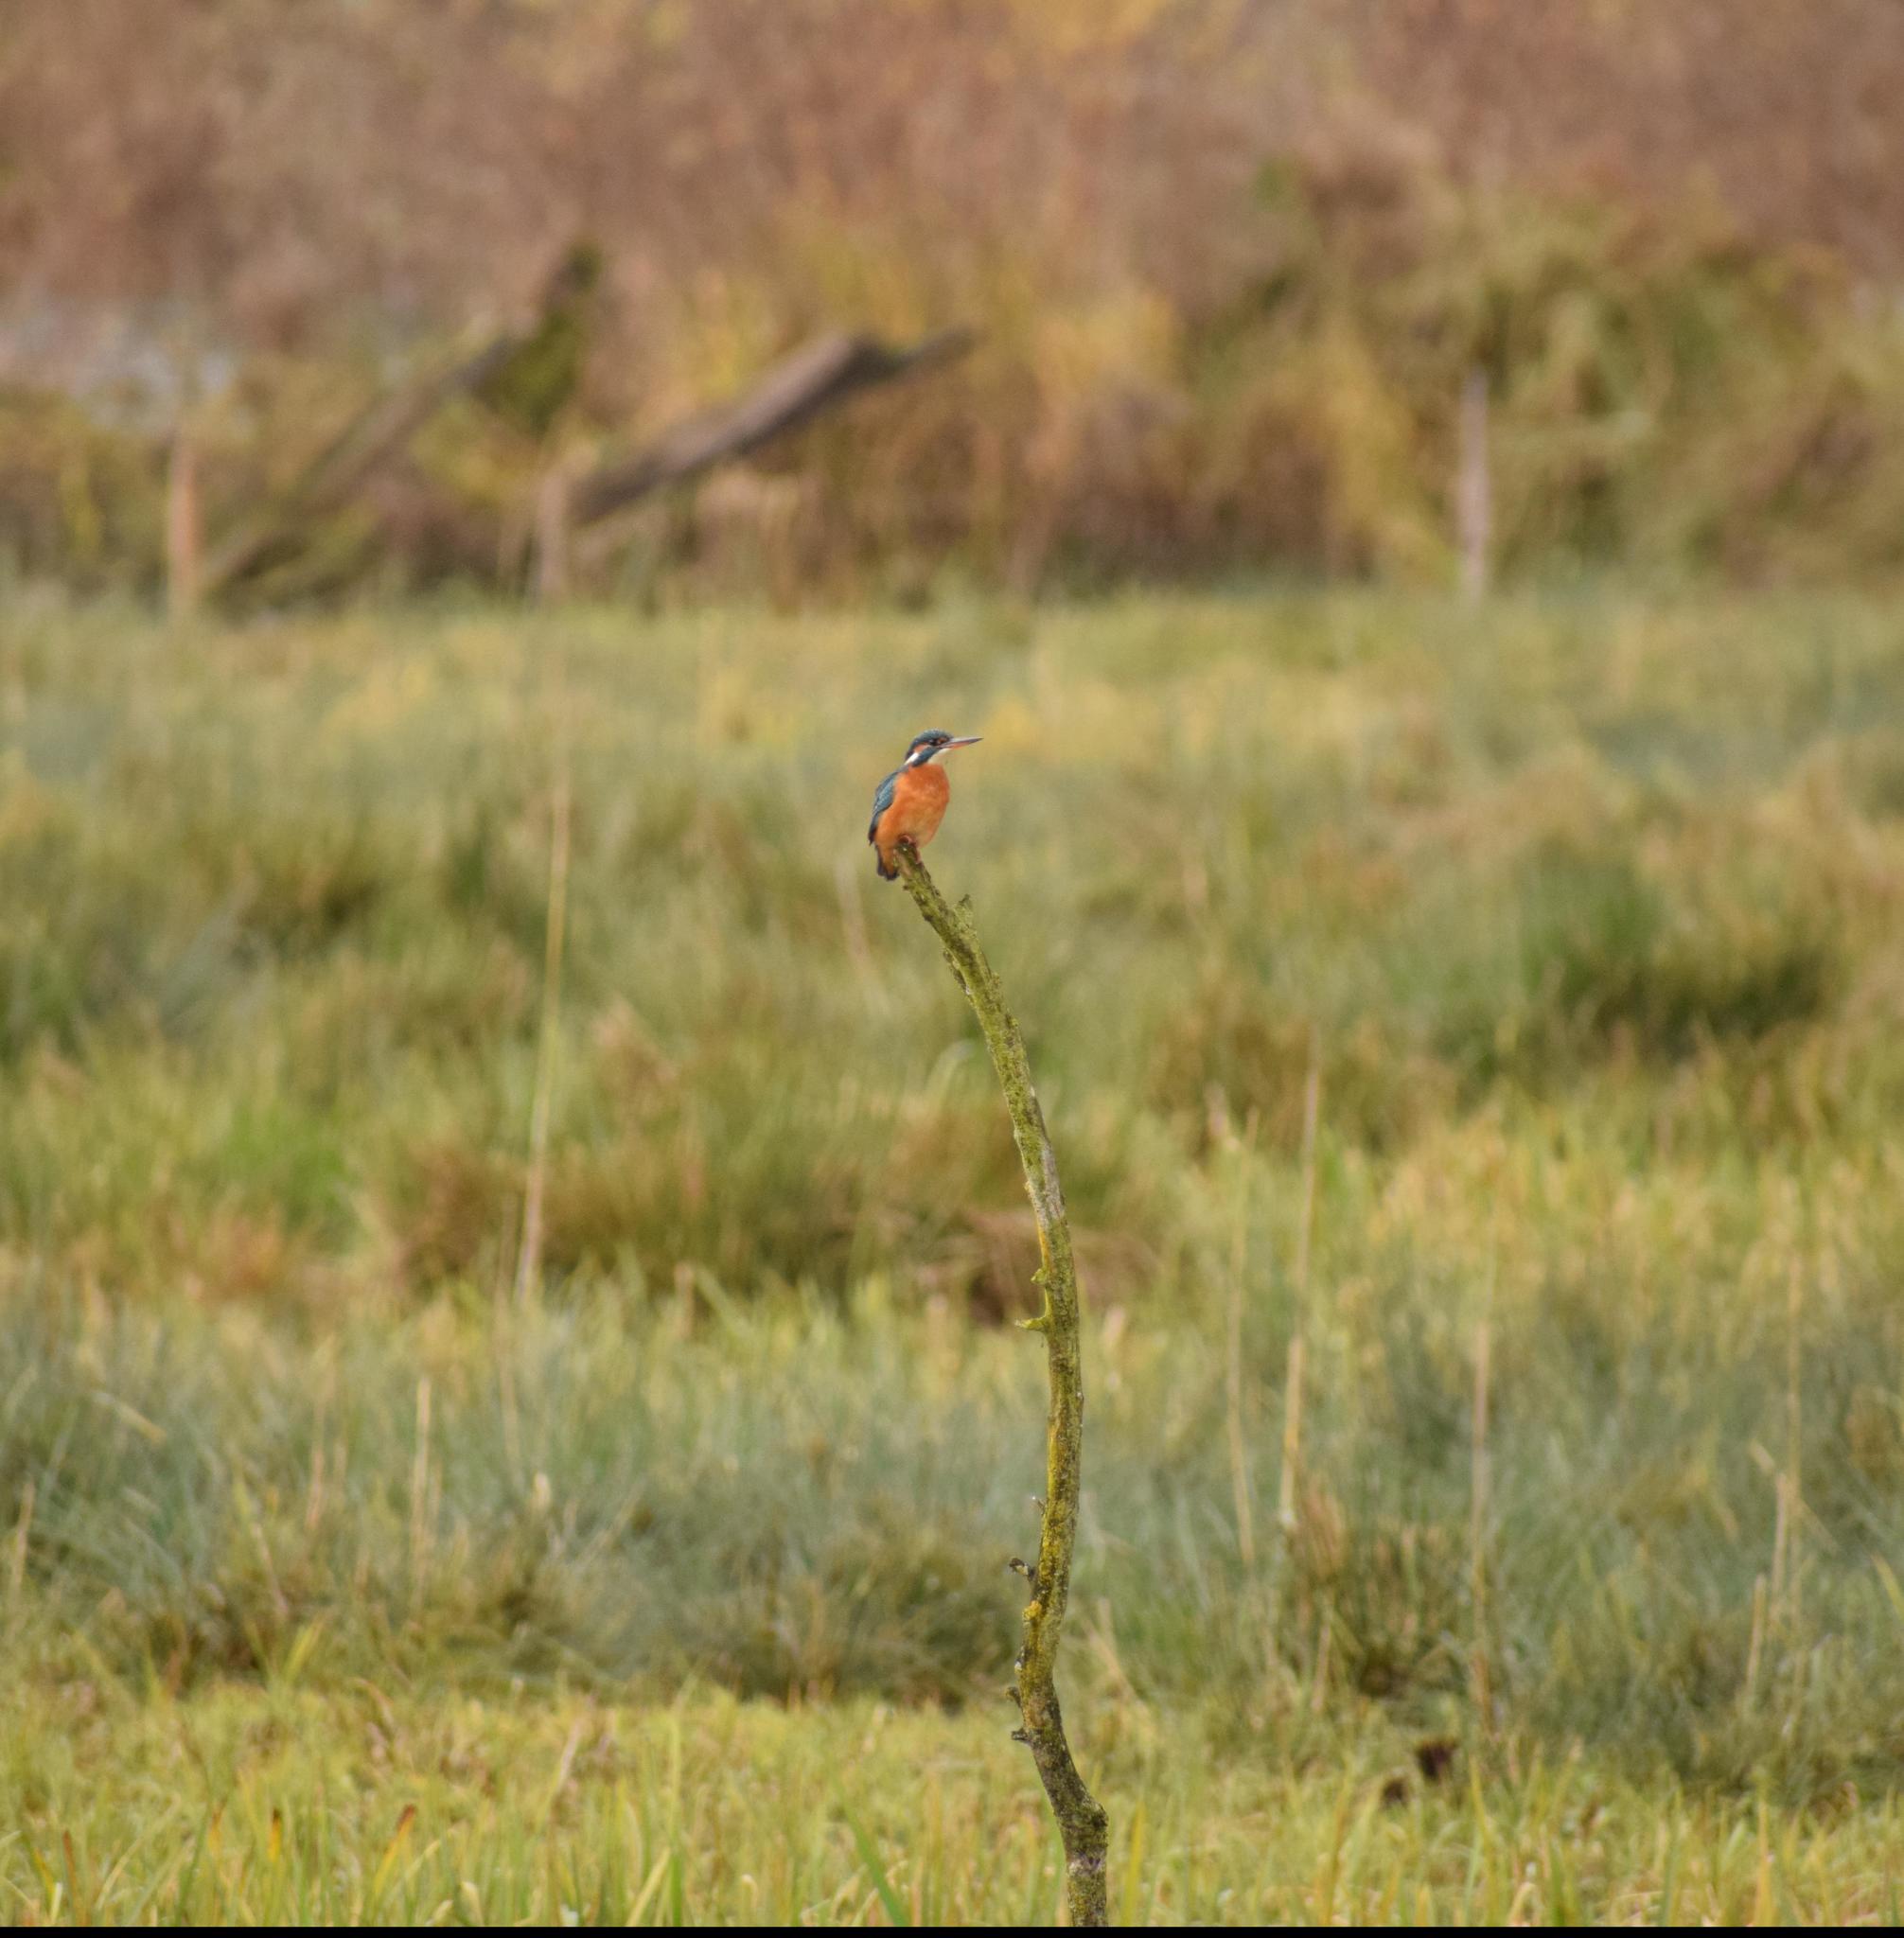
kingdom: Animalia
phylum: Chordata
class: Aves
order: Coraciiformes
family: Alcedinidae
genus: Alcedo
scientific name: Alcedo atthis
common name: Common kingfisher
